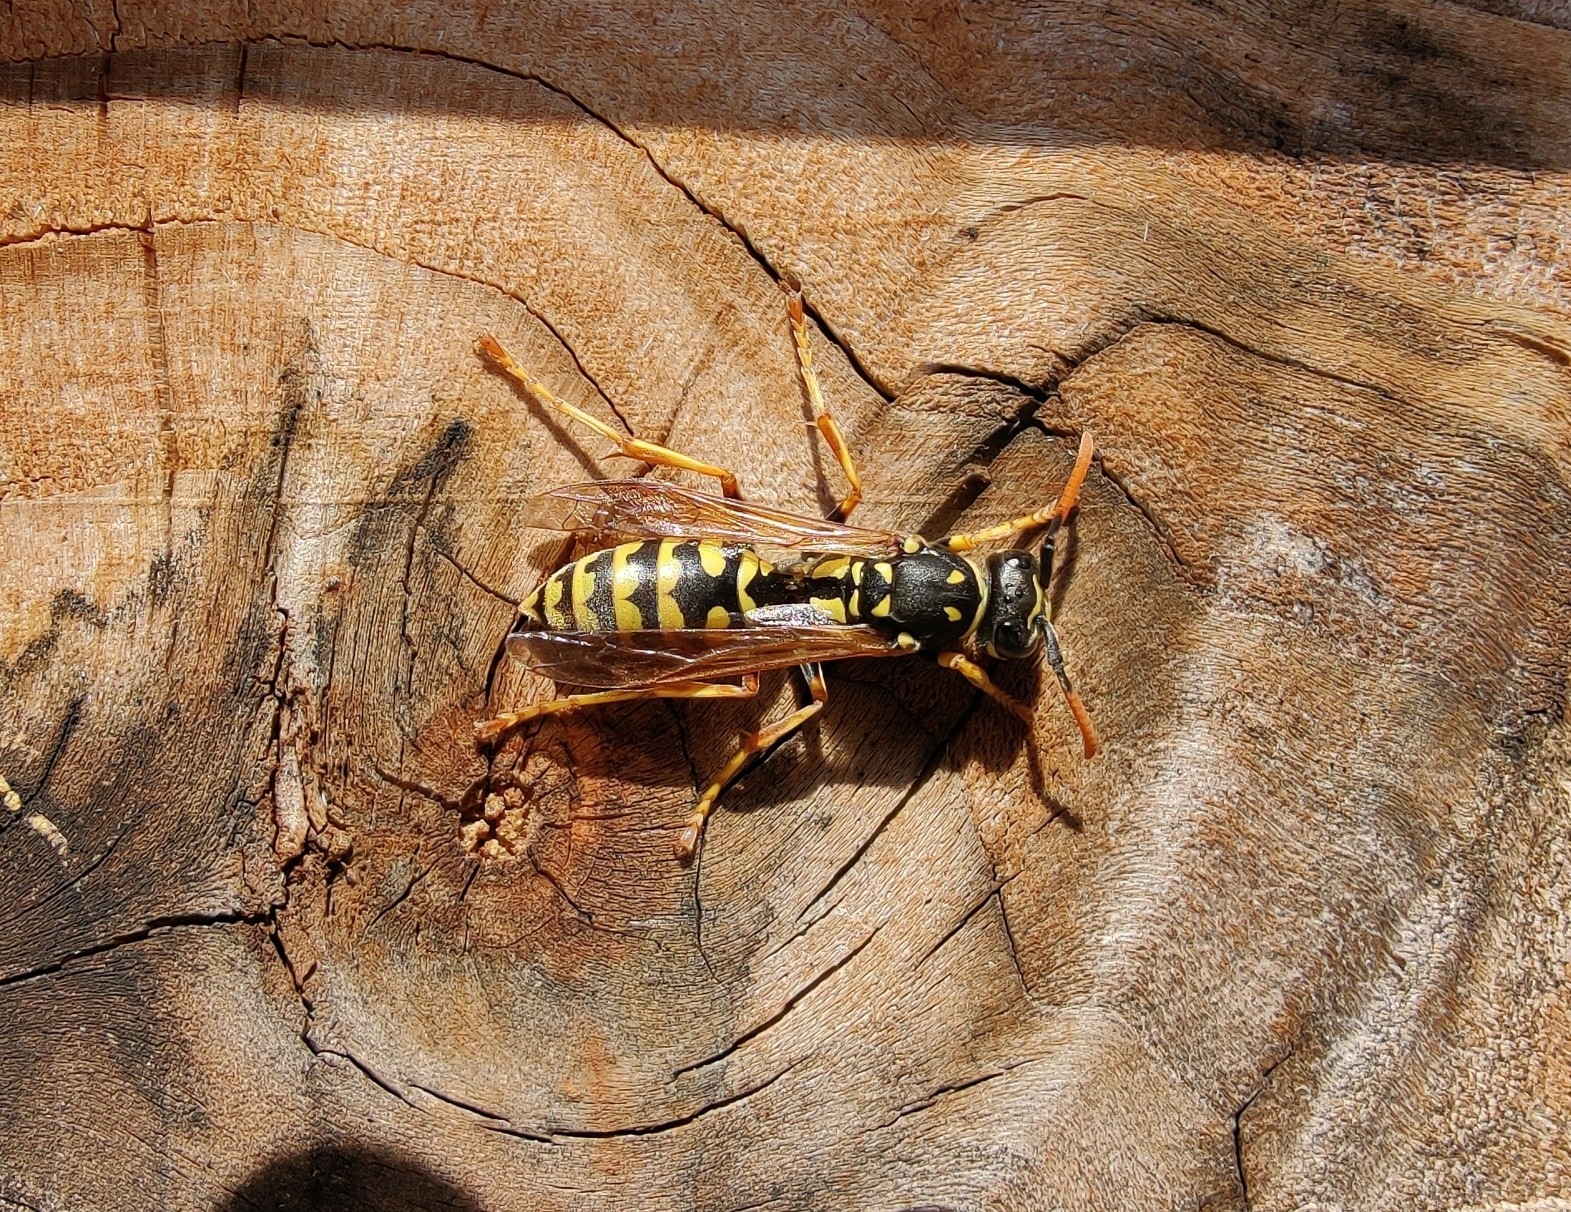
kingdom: Animalia
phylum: Arthropoda
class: Insecta
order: Hymenoptera
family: Eumenidae
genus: Polistes
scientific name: Polistes dominula
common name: Paper wasp
